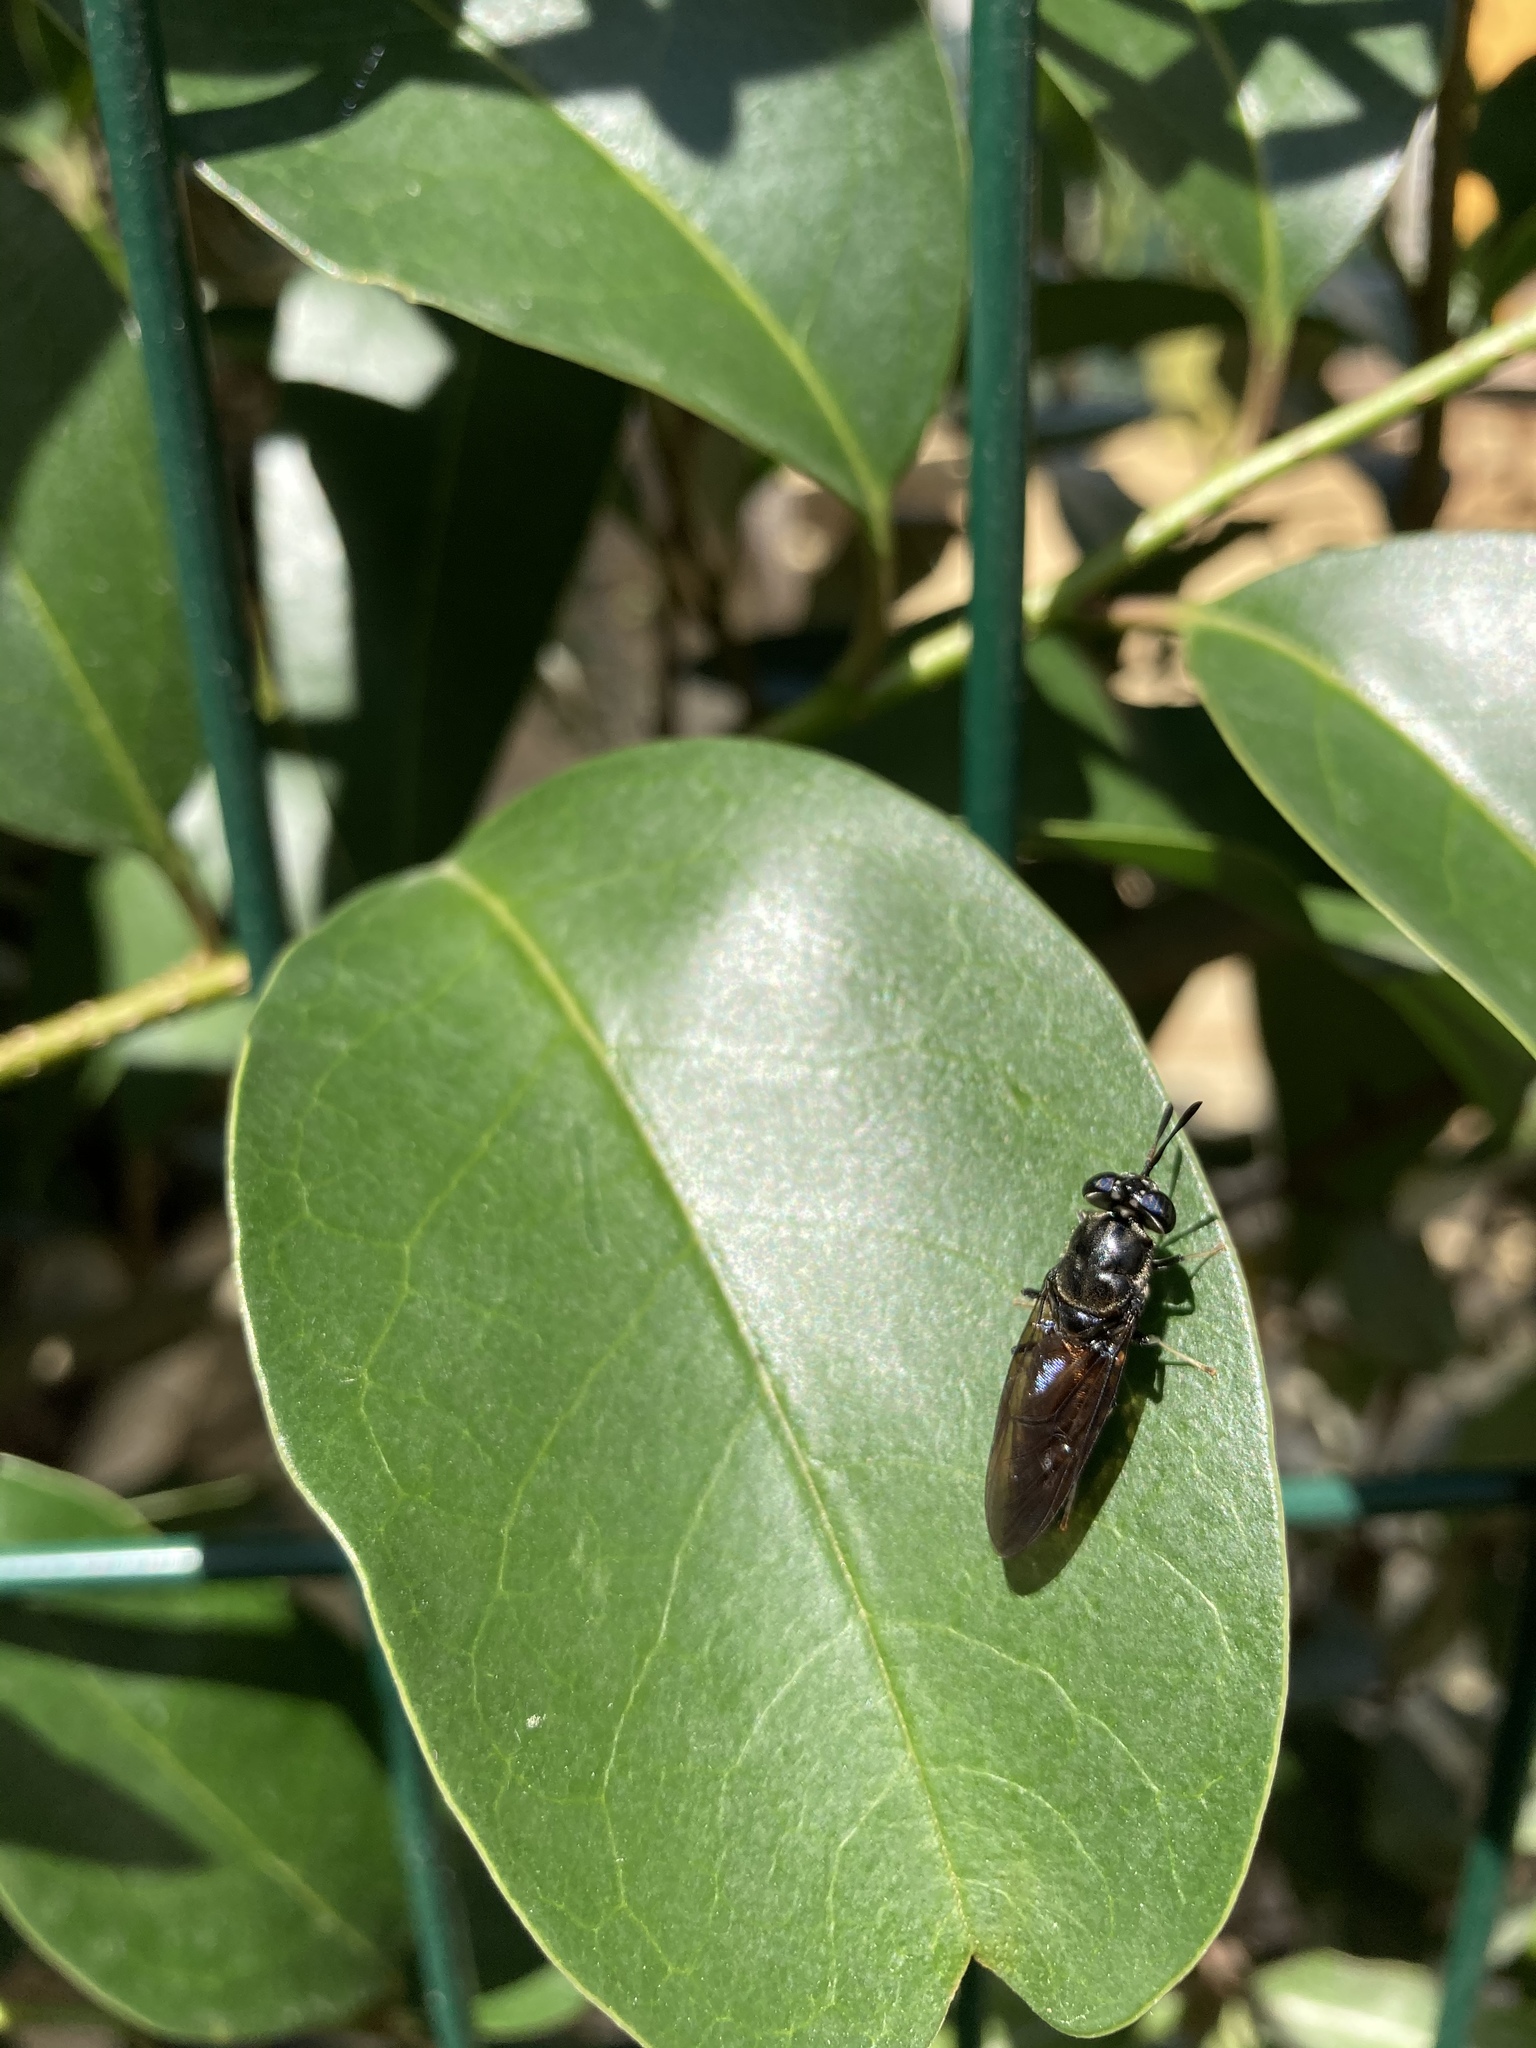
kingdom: Animalia
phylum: Arthropoda
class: Insecta
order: Diptera
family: Stratiomyidae
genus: Hermetia
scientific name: Hermetia illucens
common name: Black soldier fly
